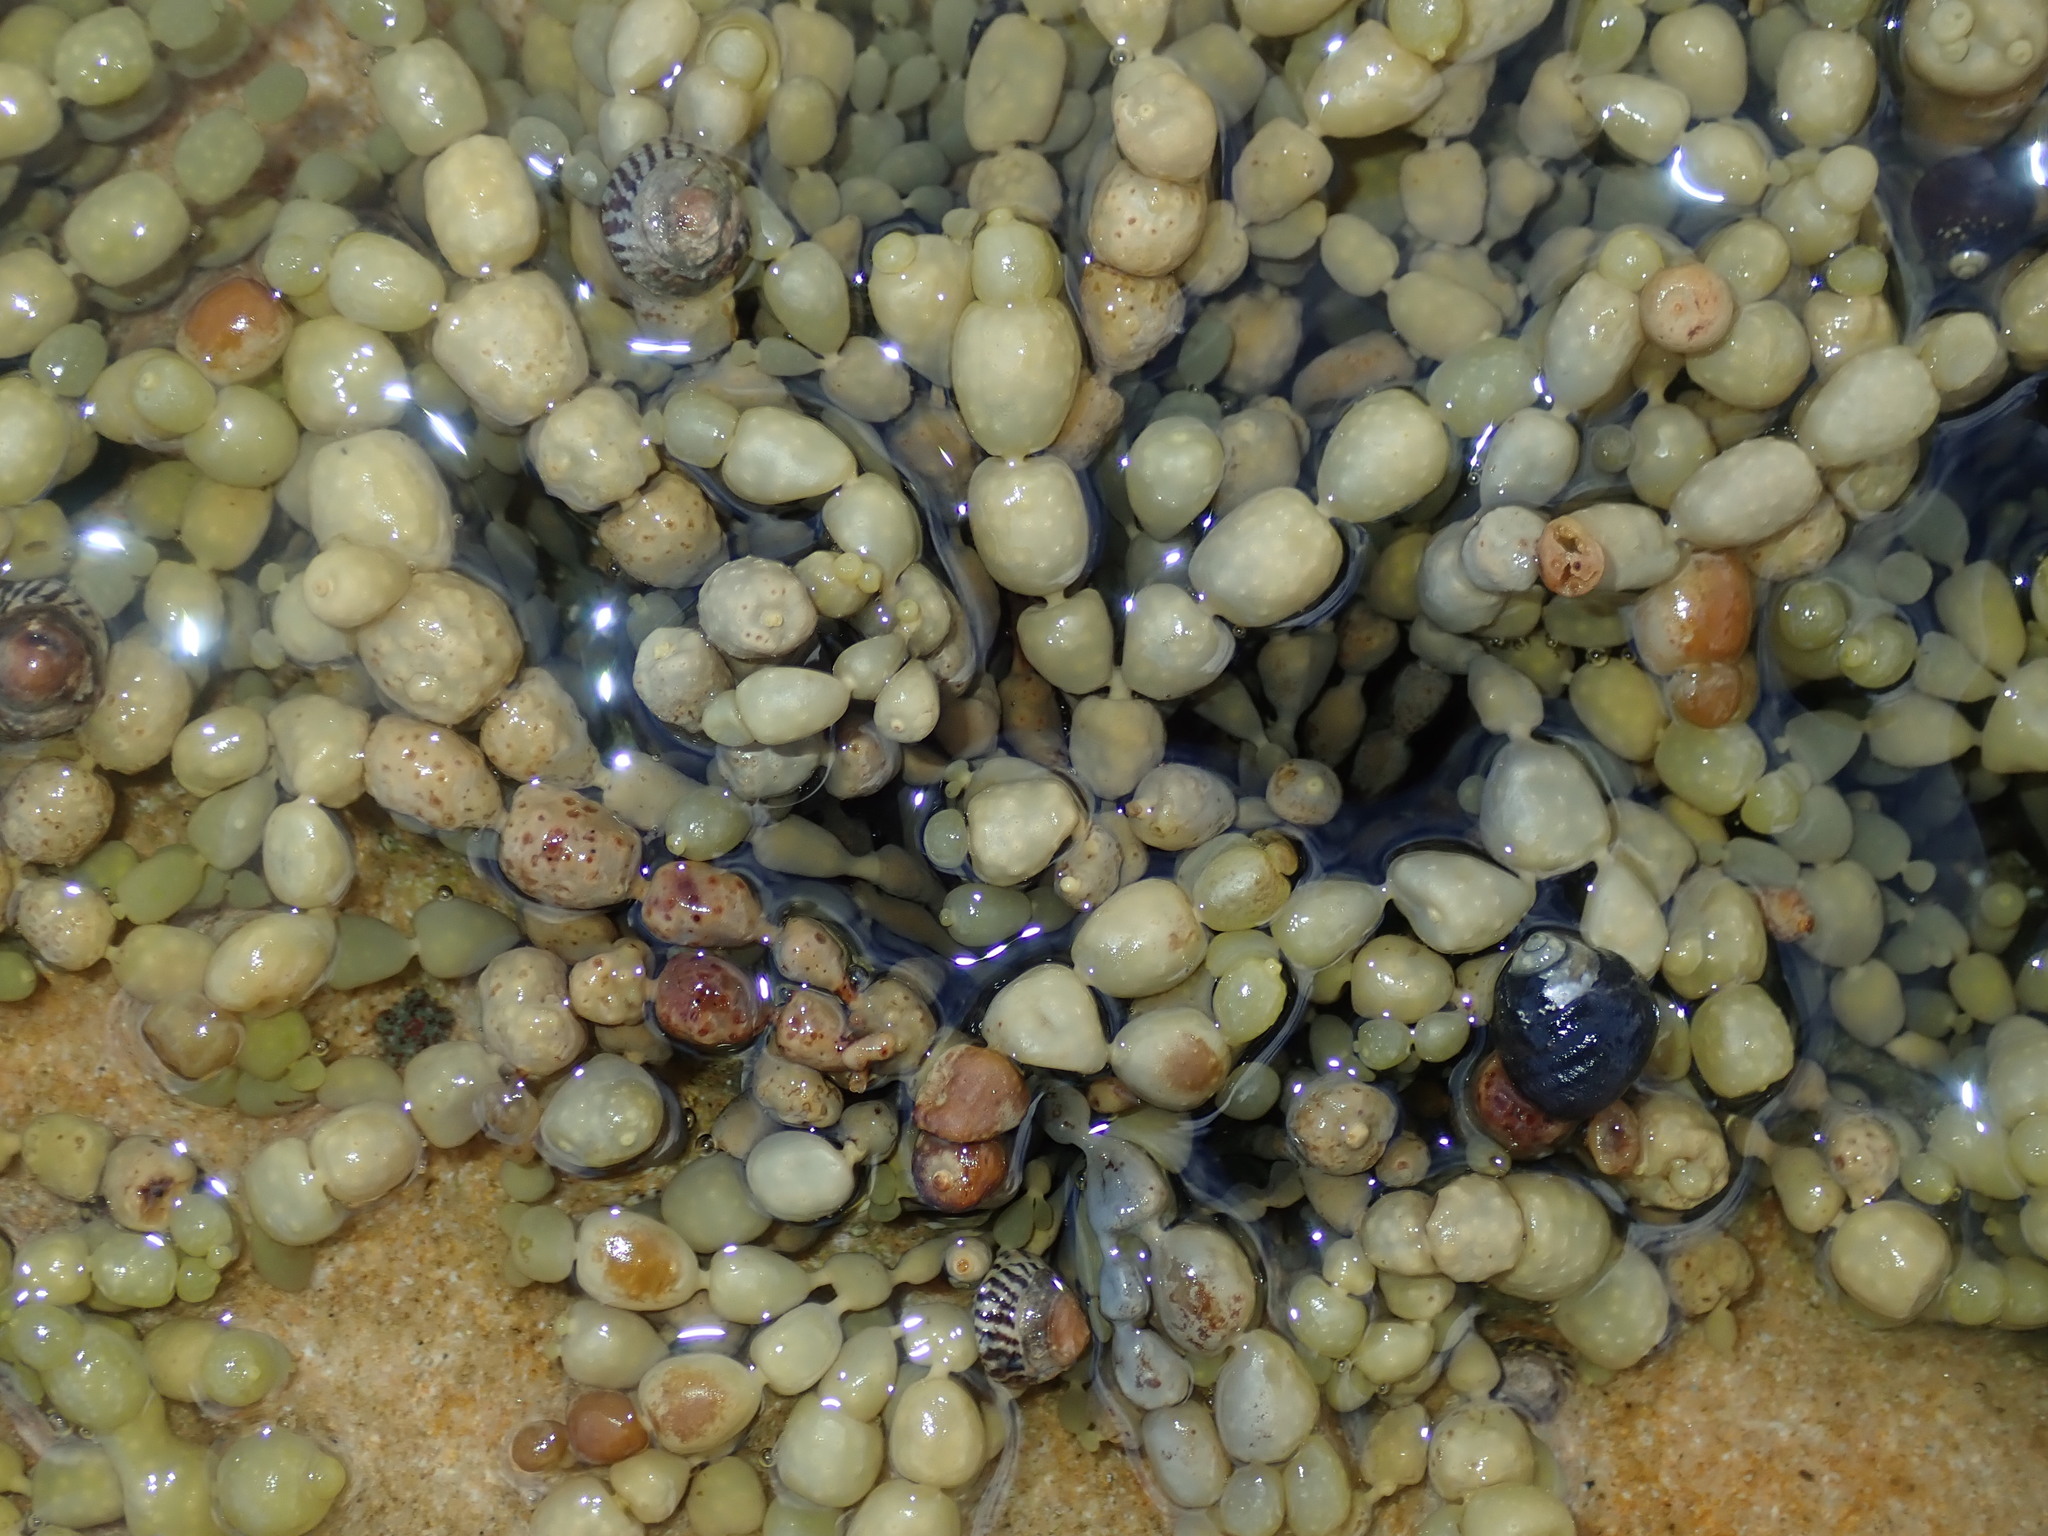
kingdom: Chromista
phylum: Ochrophyta
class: Phaeophyceae
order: Fucales
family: Hormosiraceae
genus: Hormosira
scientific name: Hormosira banksii
